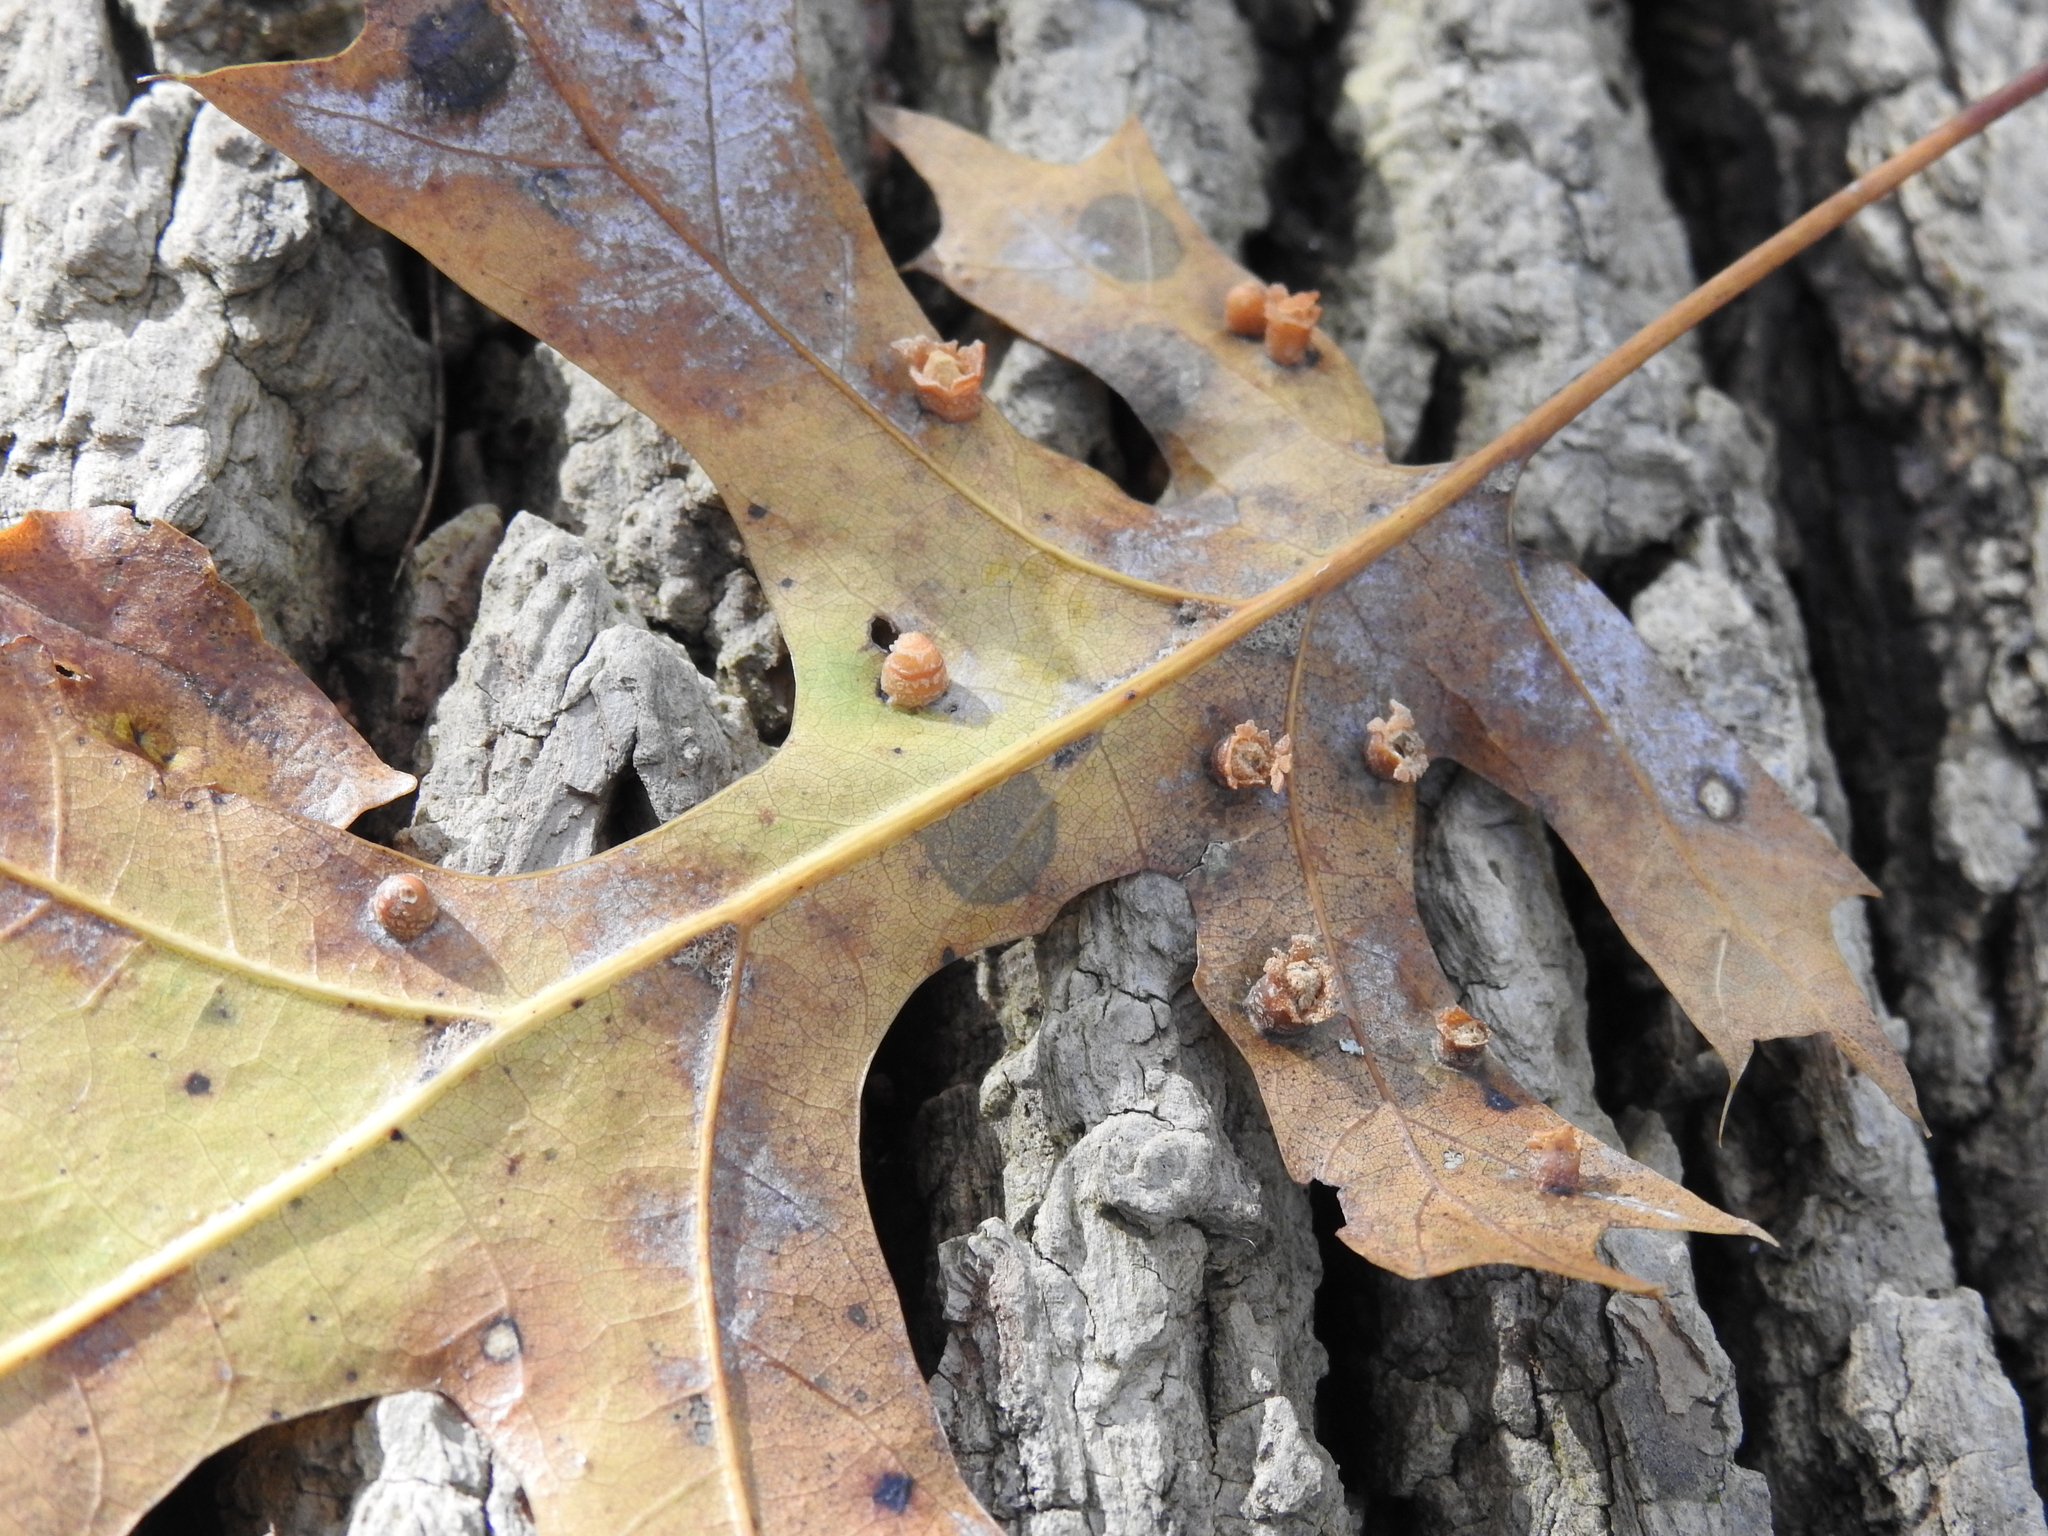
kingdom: Animalia
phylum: Arthropoda
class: Insecta
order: Diptera
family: Cecidomyiidae
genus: Polystepha
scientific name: Polystepha globosa
